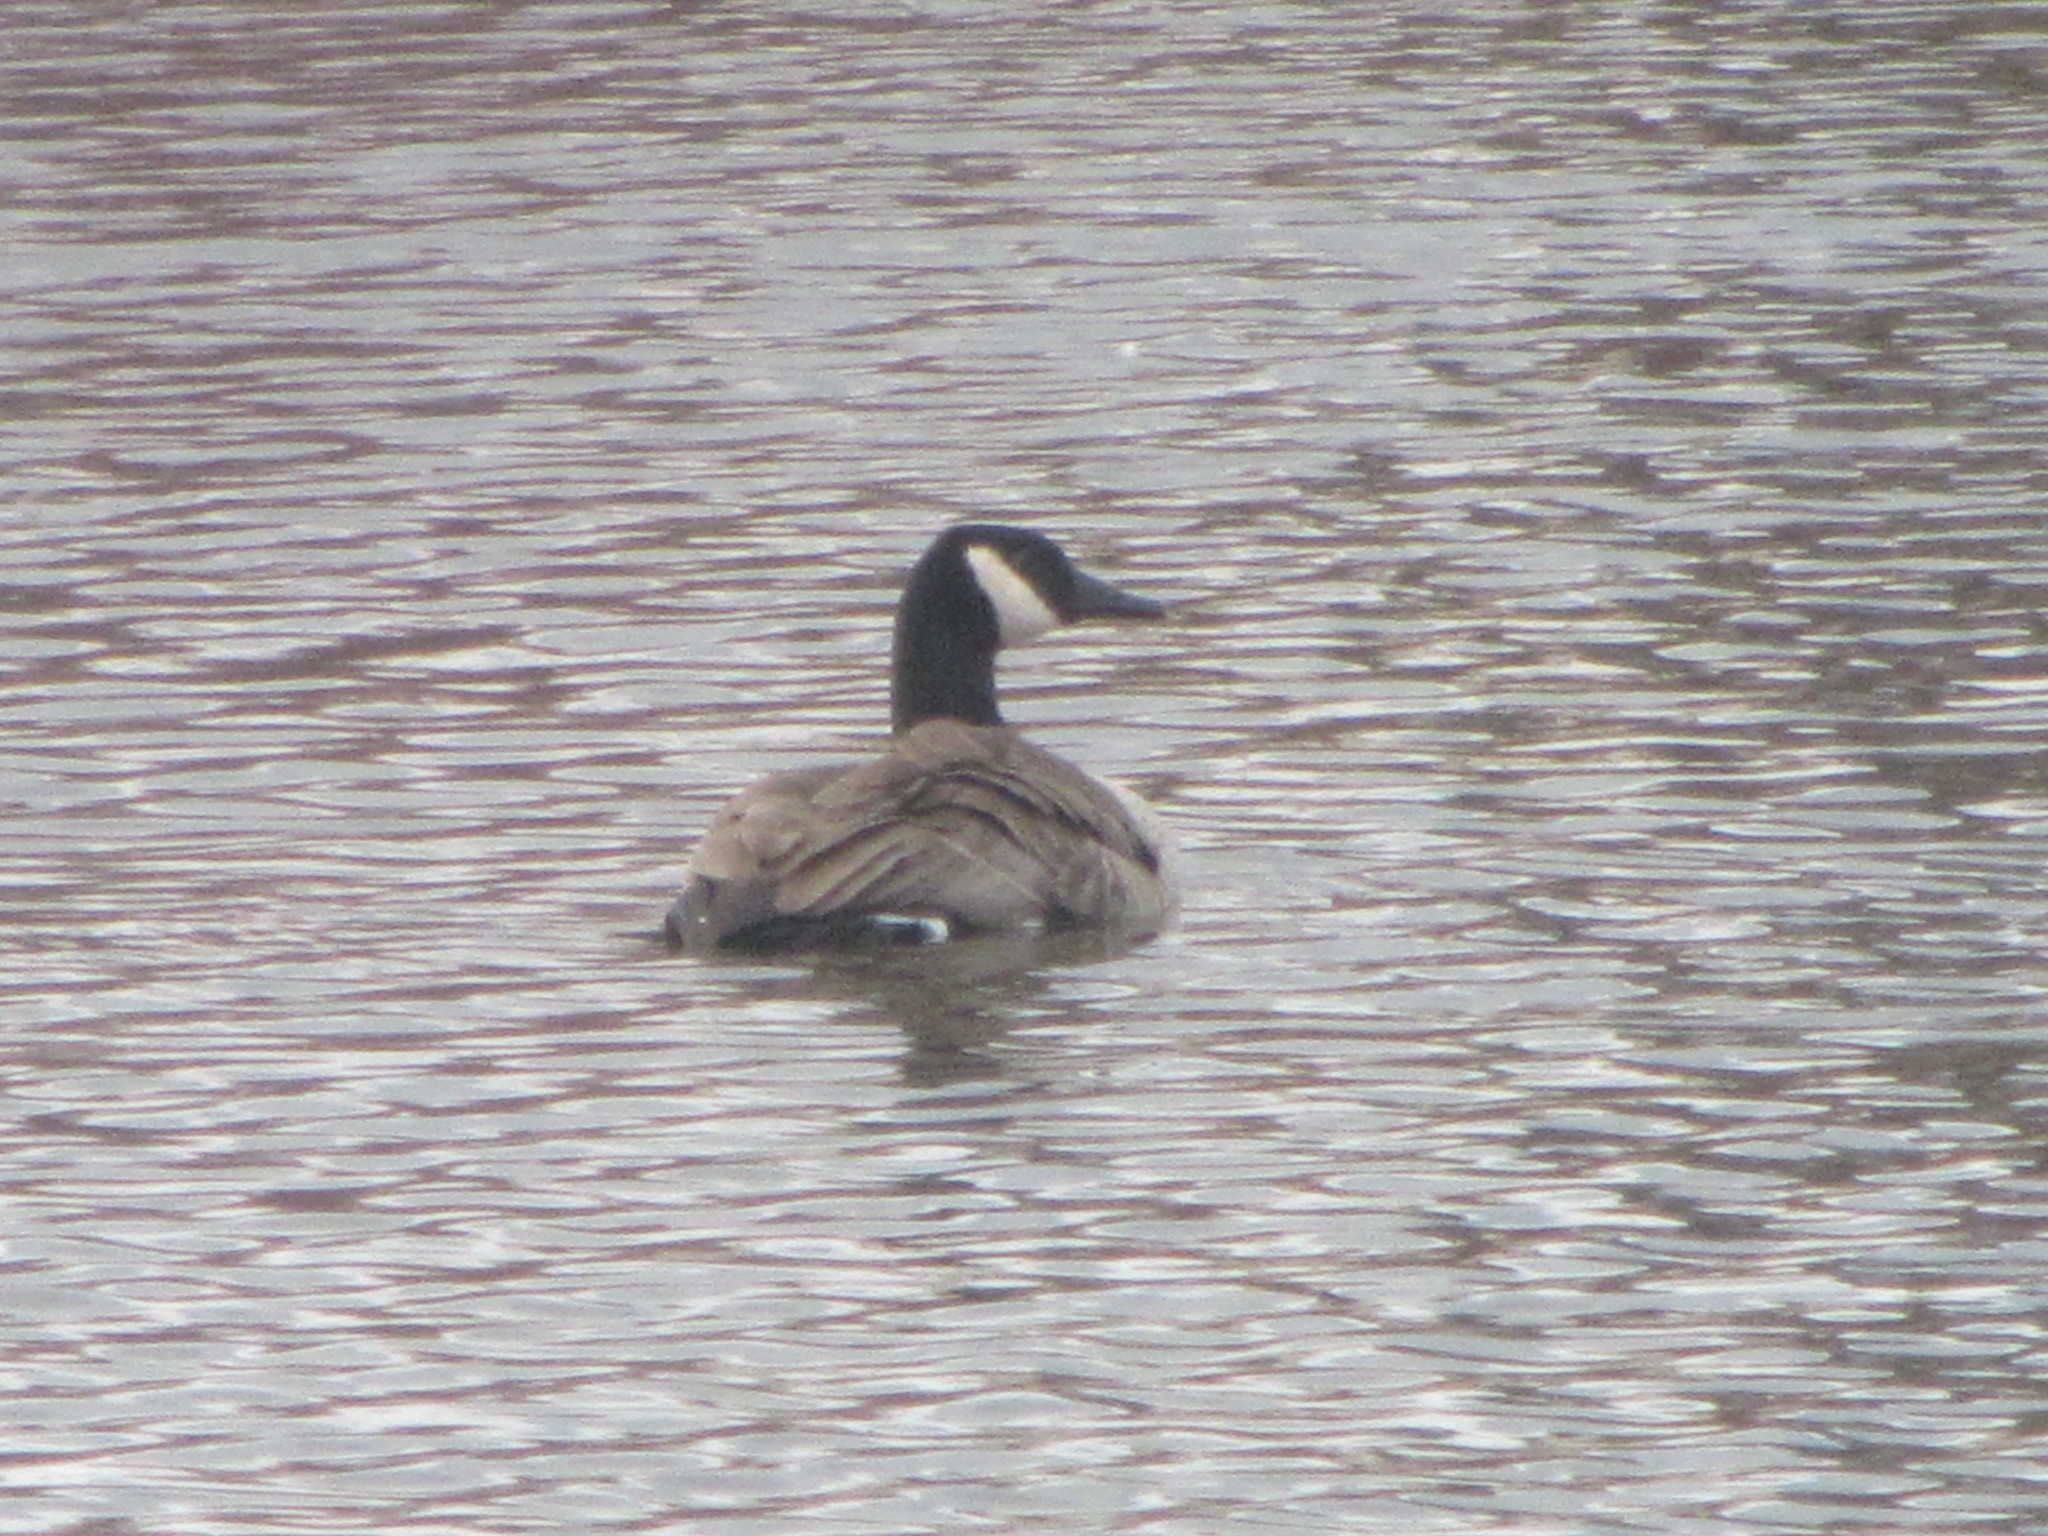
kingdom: Animalia
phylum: Chordata
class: Aves
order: Anseriformes
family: Anatidae
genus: Branta
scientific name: Branta canadensis
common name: Canada goose
